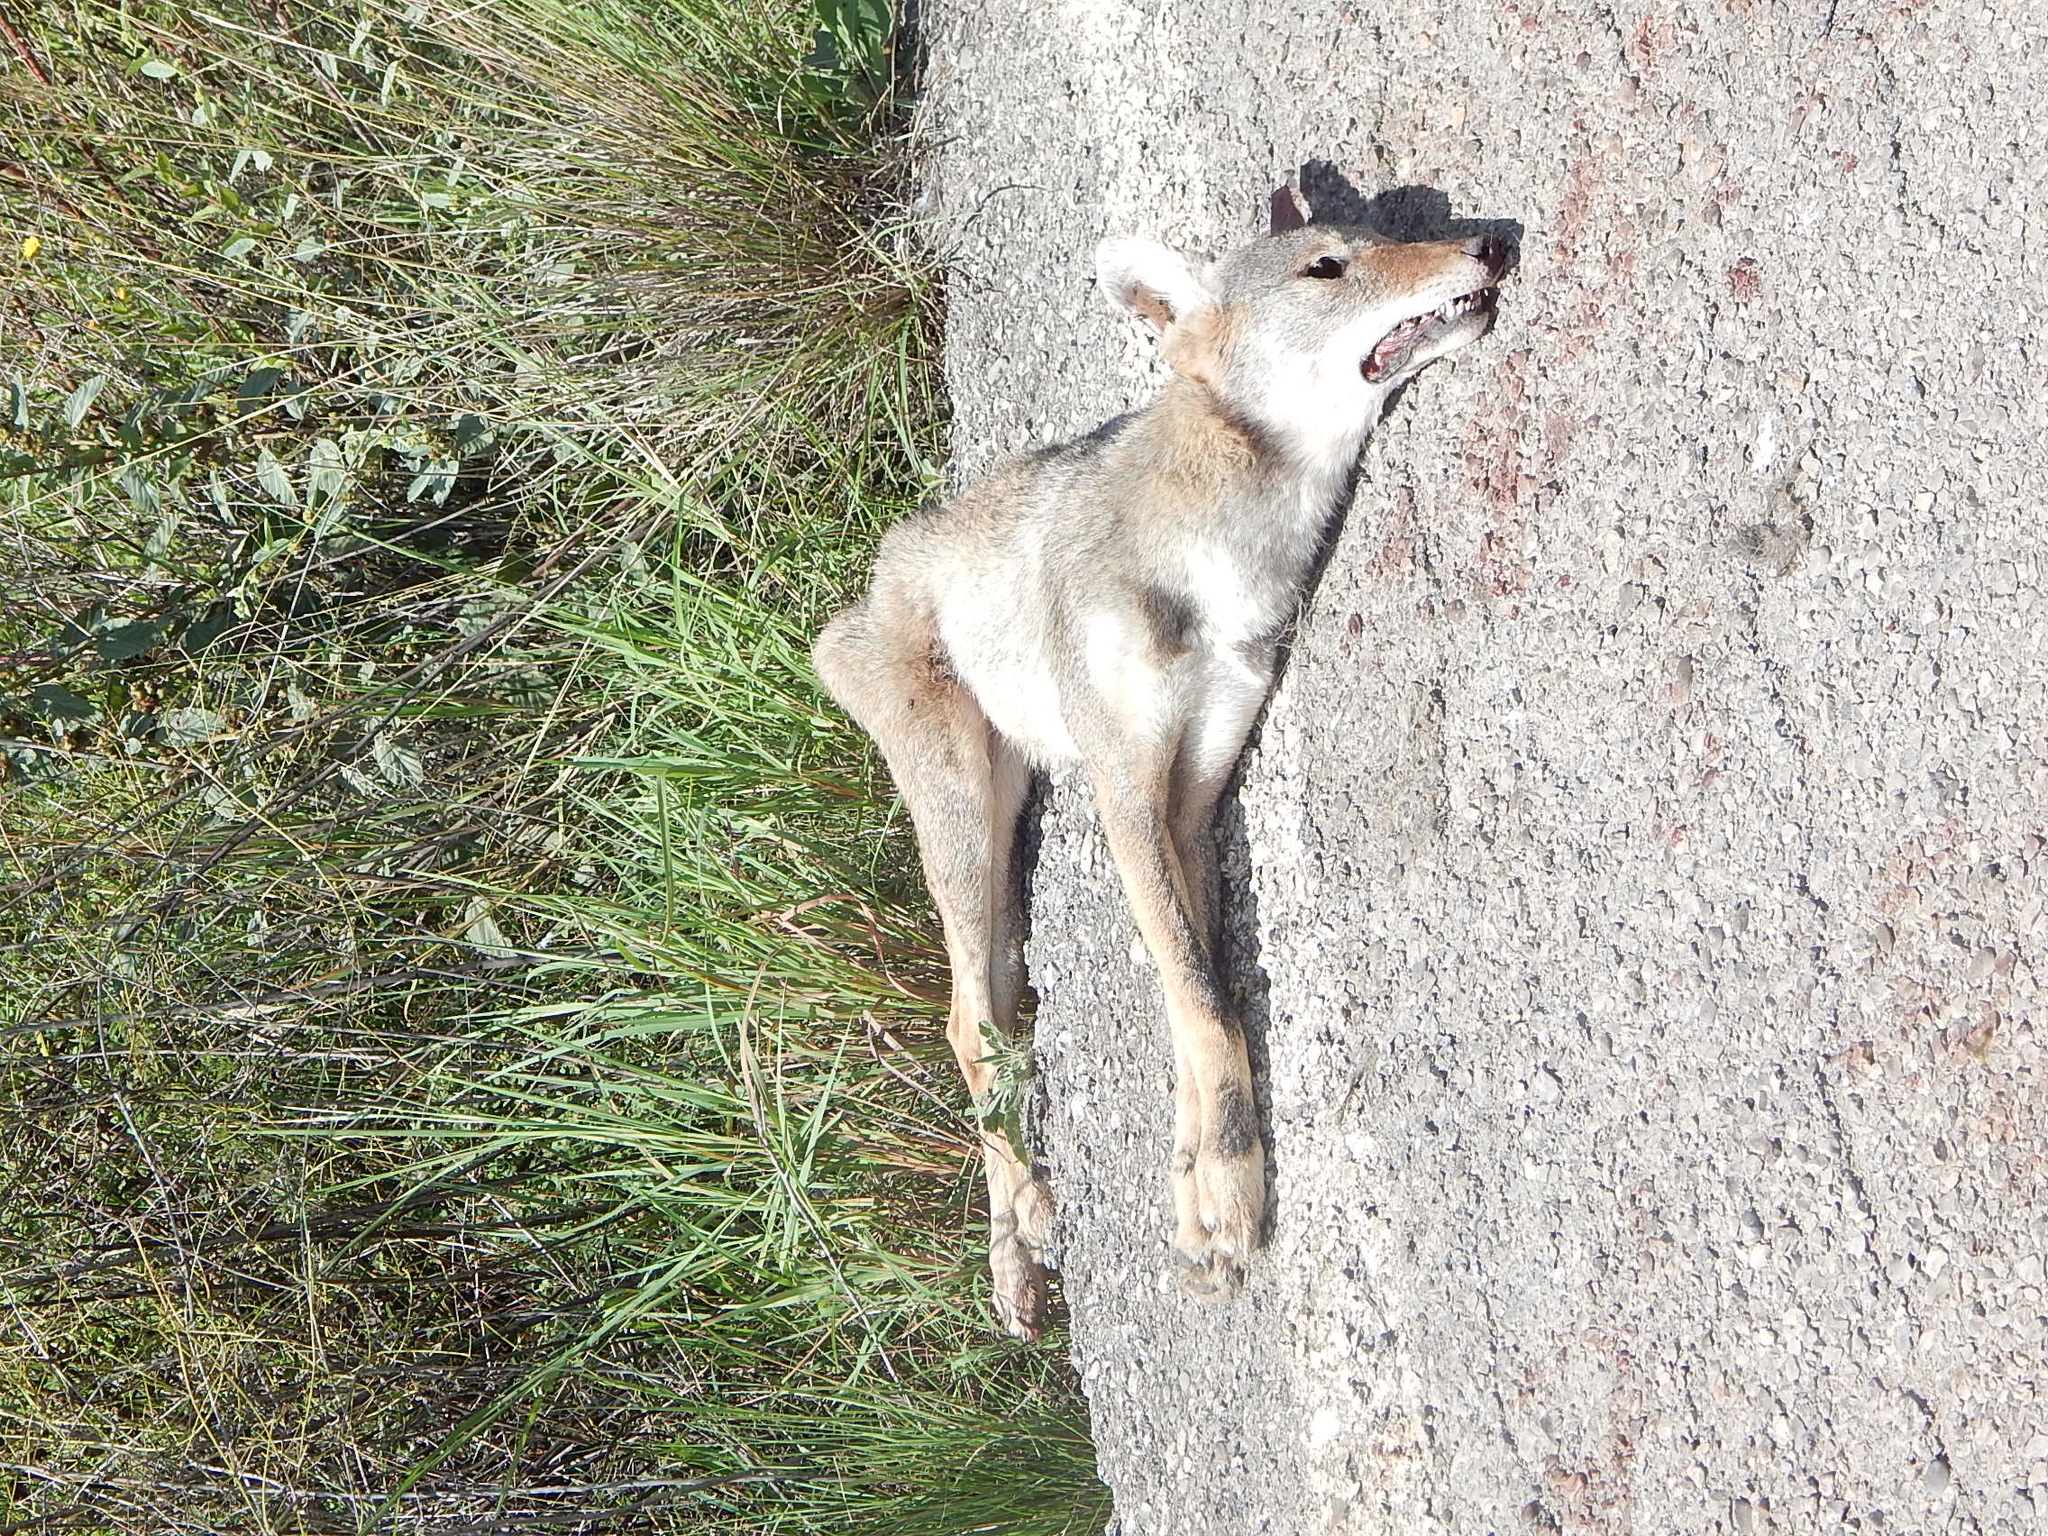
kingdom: Animalia
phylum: Chordata
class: Mammalia
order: Carnivora
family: Canidae
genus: Canis
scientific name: Canis latrans
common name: Coyote
